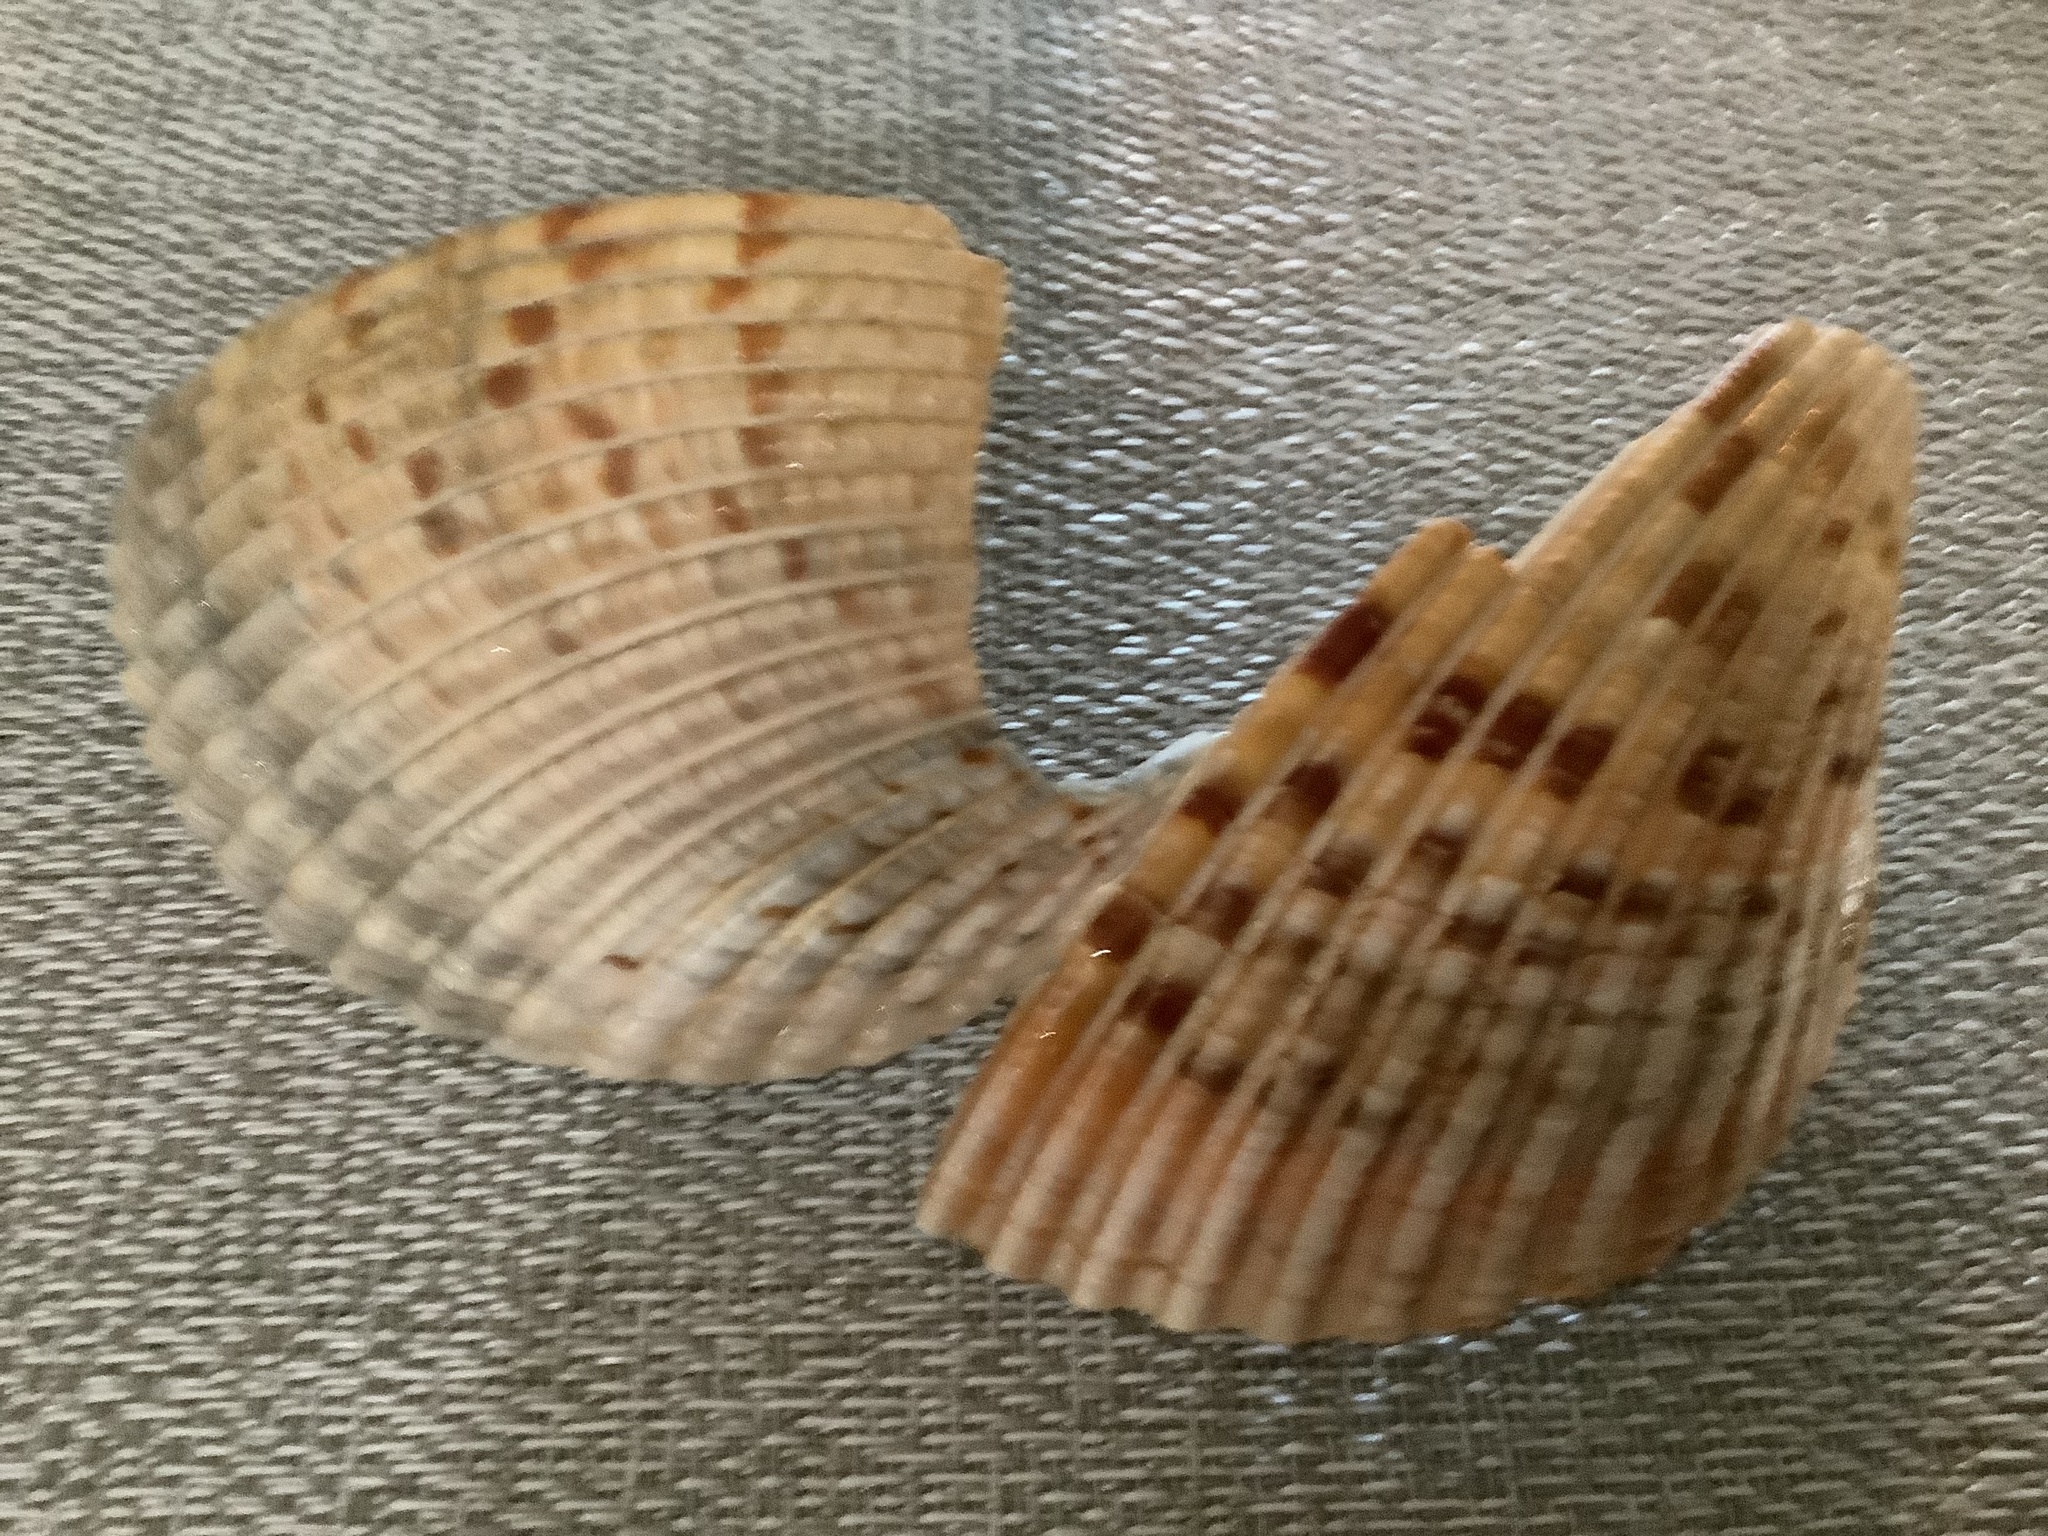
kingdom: Animalia
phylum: Mollusca
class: Bivalvia
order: Cardiida
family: Cardiidae
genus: Dinocardium
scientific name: Dinocardium robustum
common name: Atlantic giant cockle
